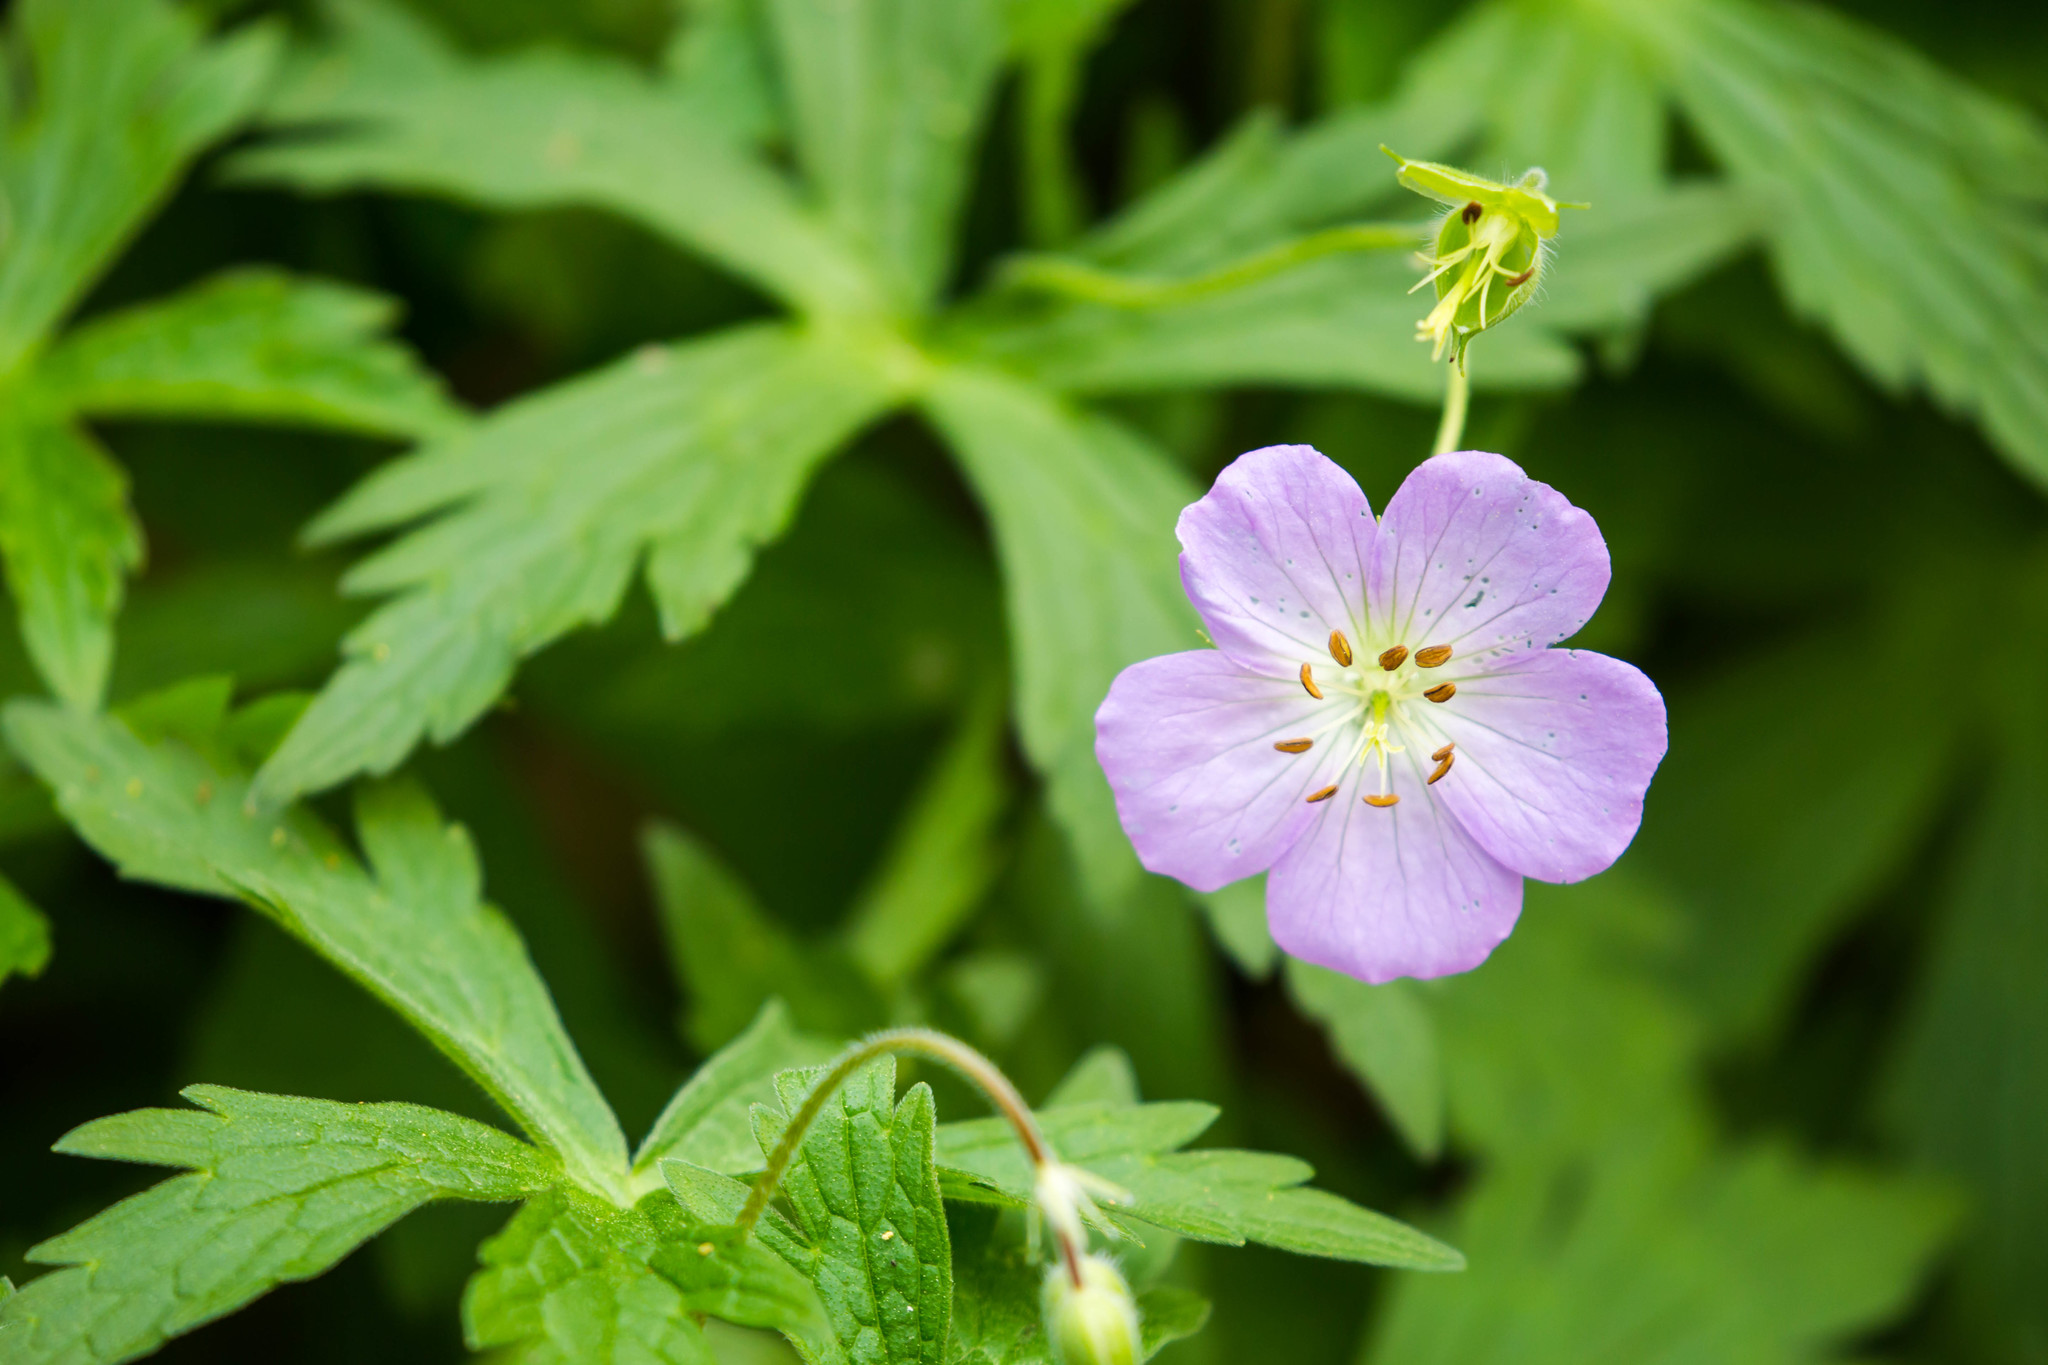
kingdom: Plantae
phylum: Tracheophyta
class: Magnoliopsida
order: Geraniales
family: Geraniaceae
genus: Geranium
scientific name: Geranium maculatum
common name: Spotted geranium
